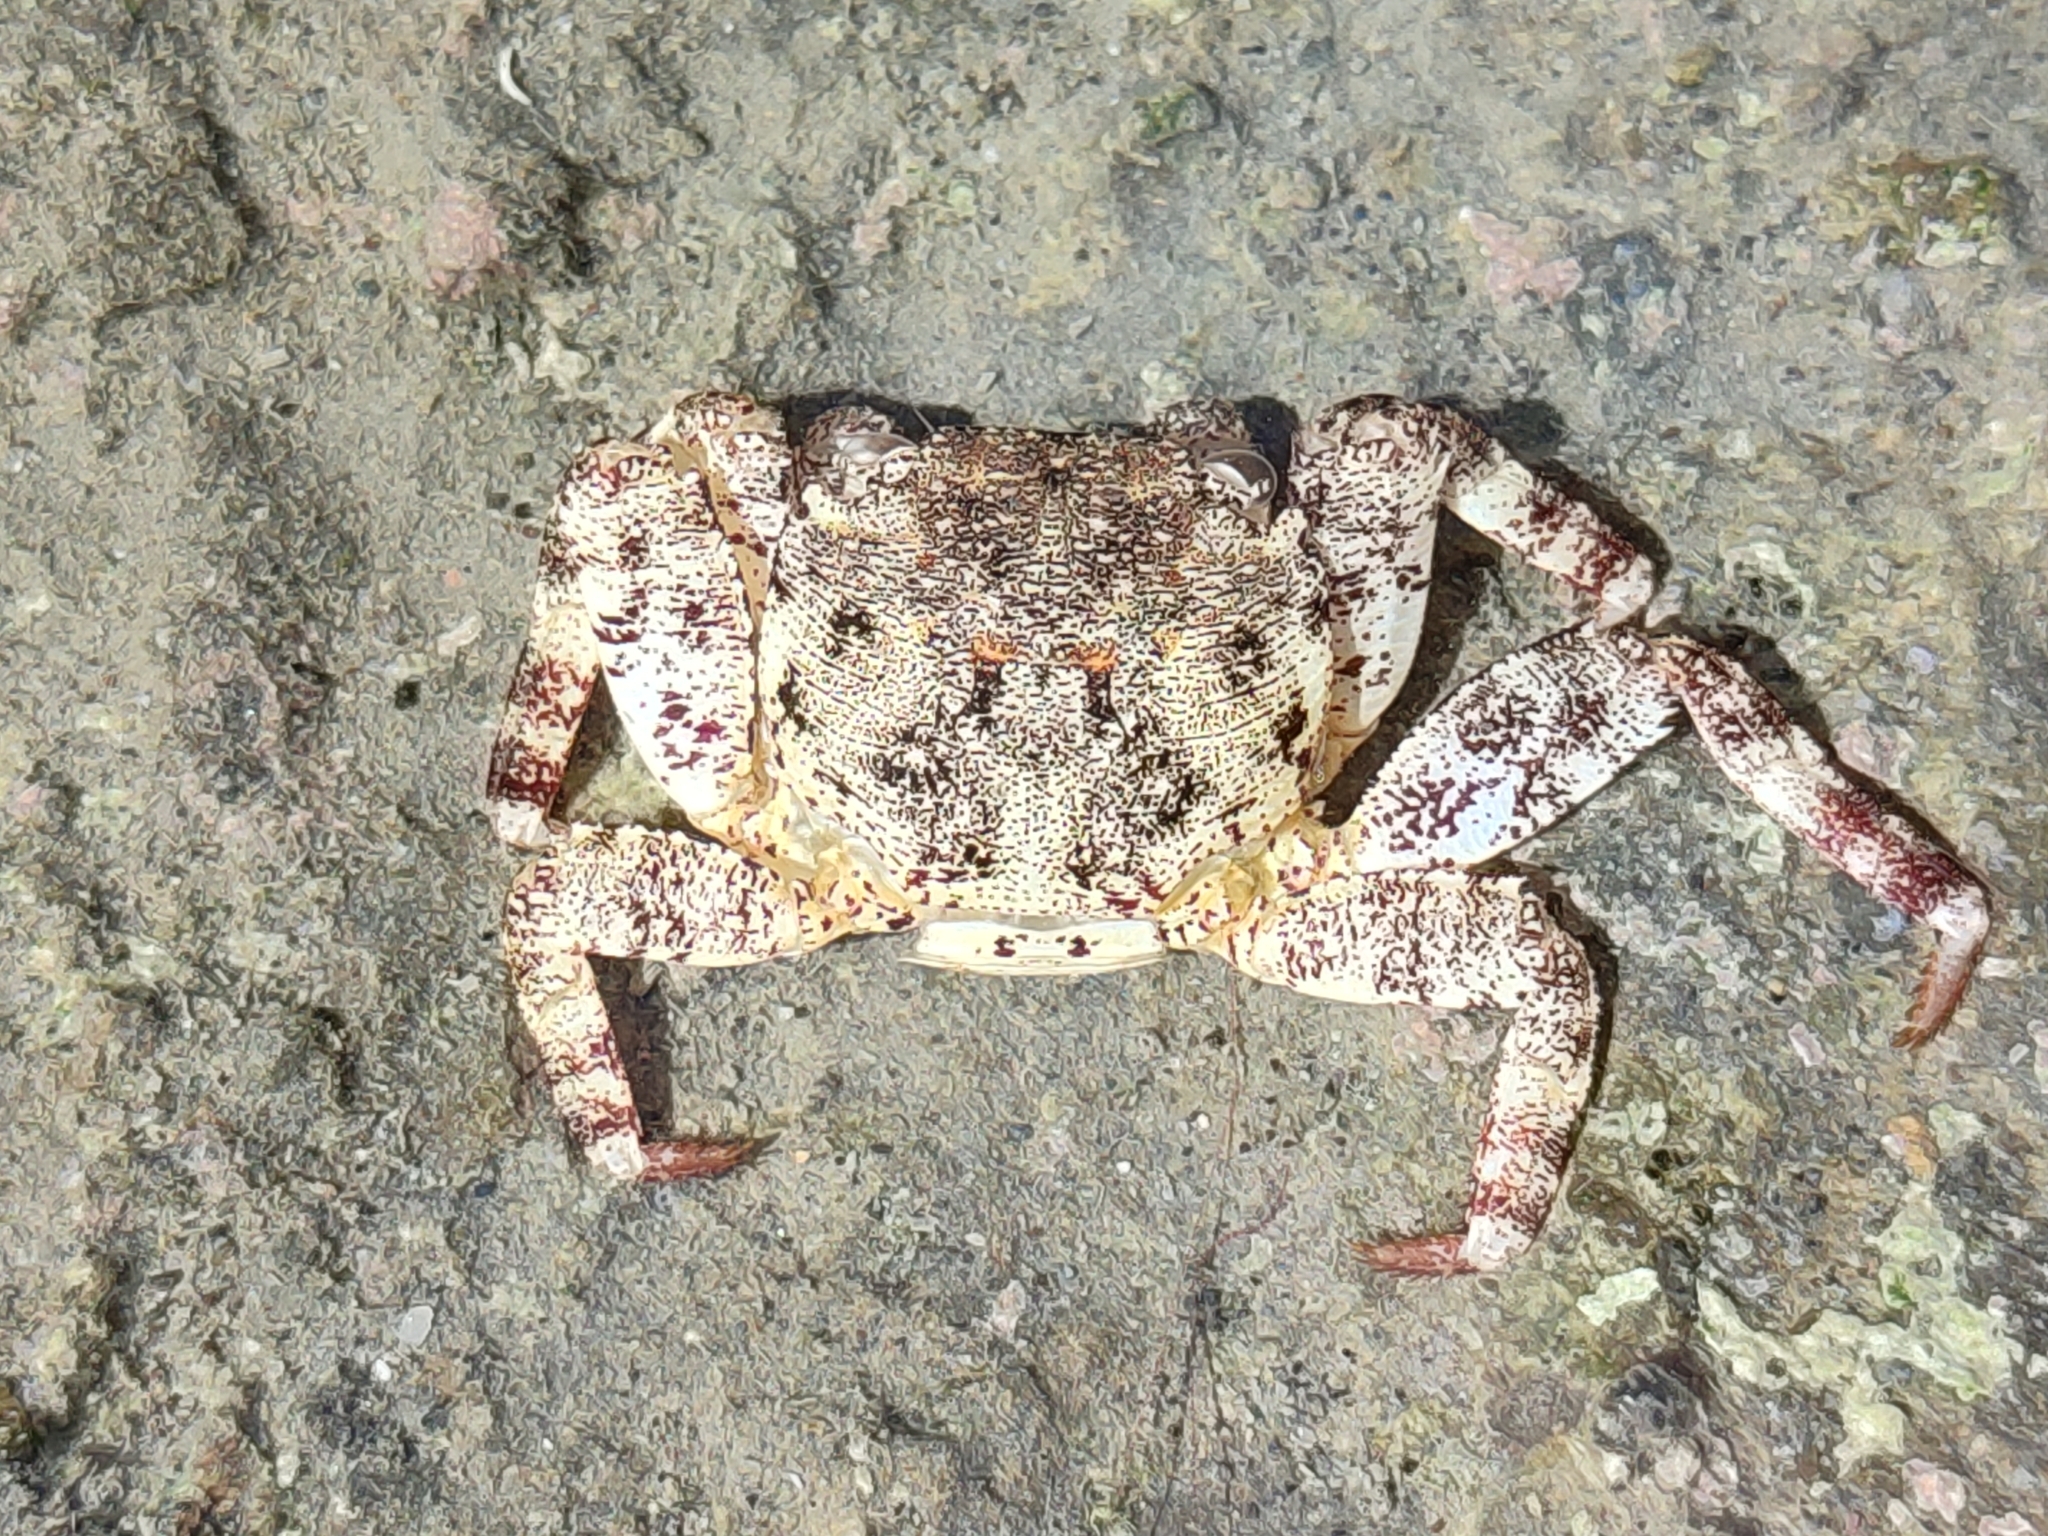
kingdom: Animalia
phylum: Arthropoda
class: Malacostraca
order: Decapoda
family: Grapsidae
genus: Grapsus
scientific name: Grapsus intermedius
